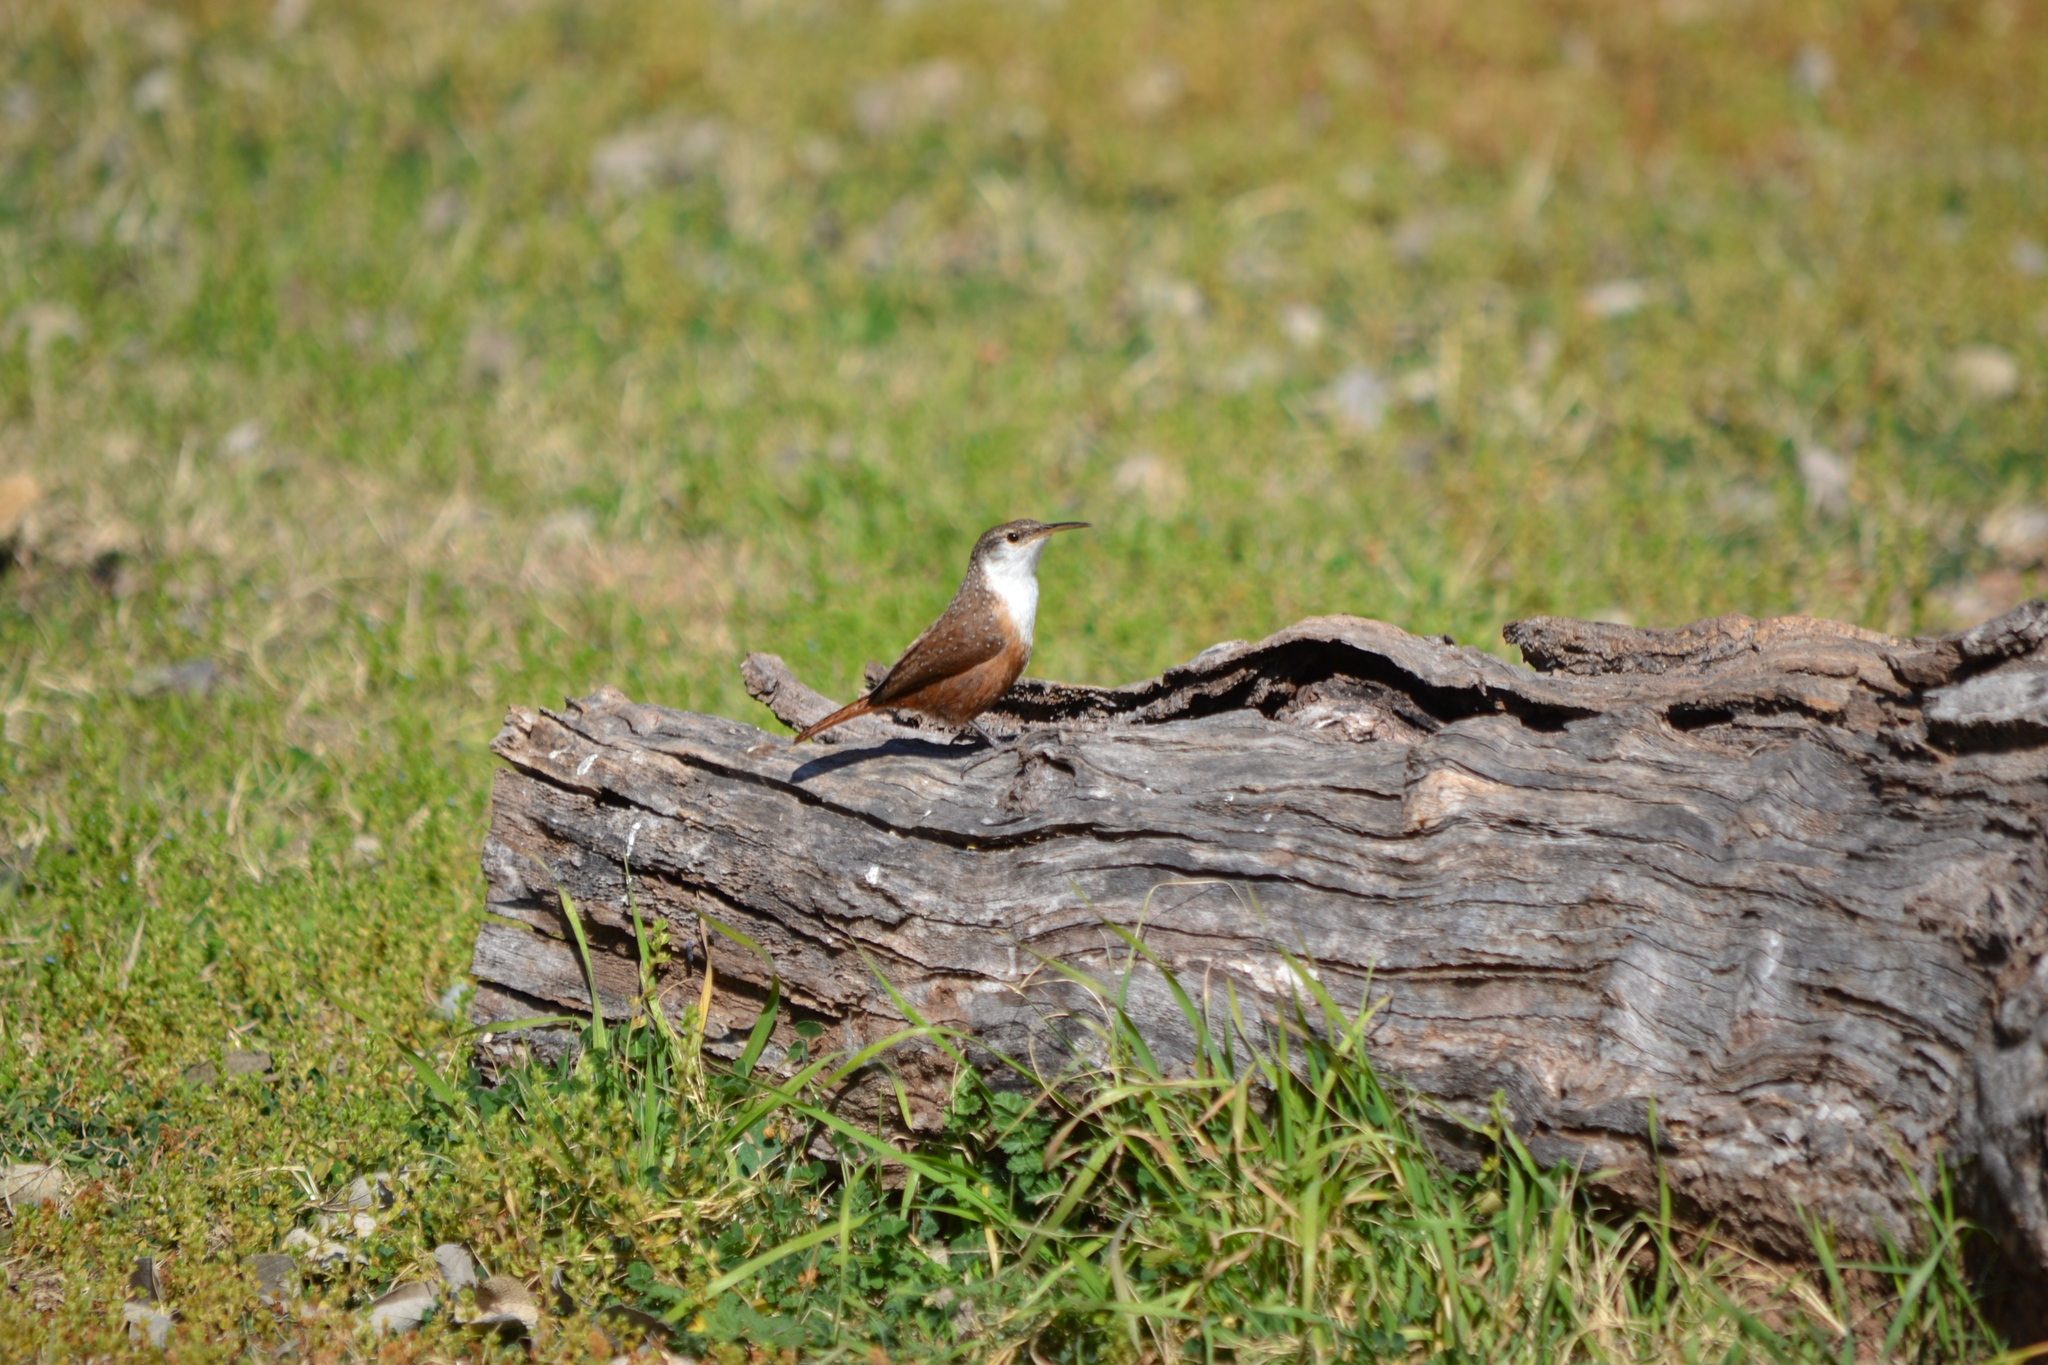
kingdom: Animalia
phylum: Chordata
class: Aves
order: Passeriformes
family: Troglodytidae
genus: Catherpes
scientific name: Catherpes mexicanus
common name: Canyon wren
